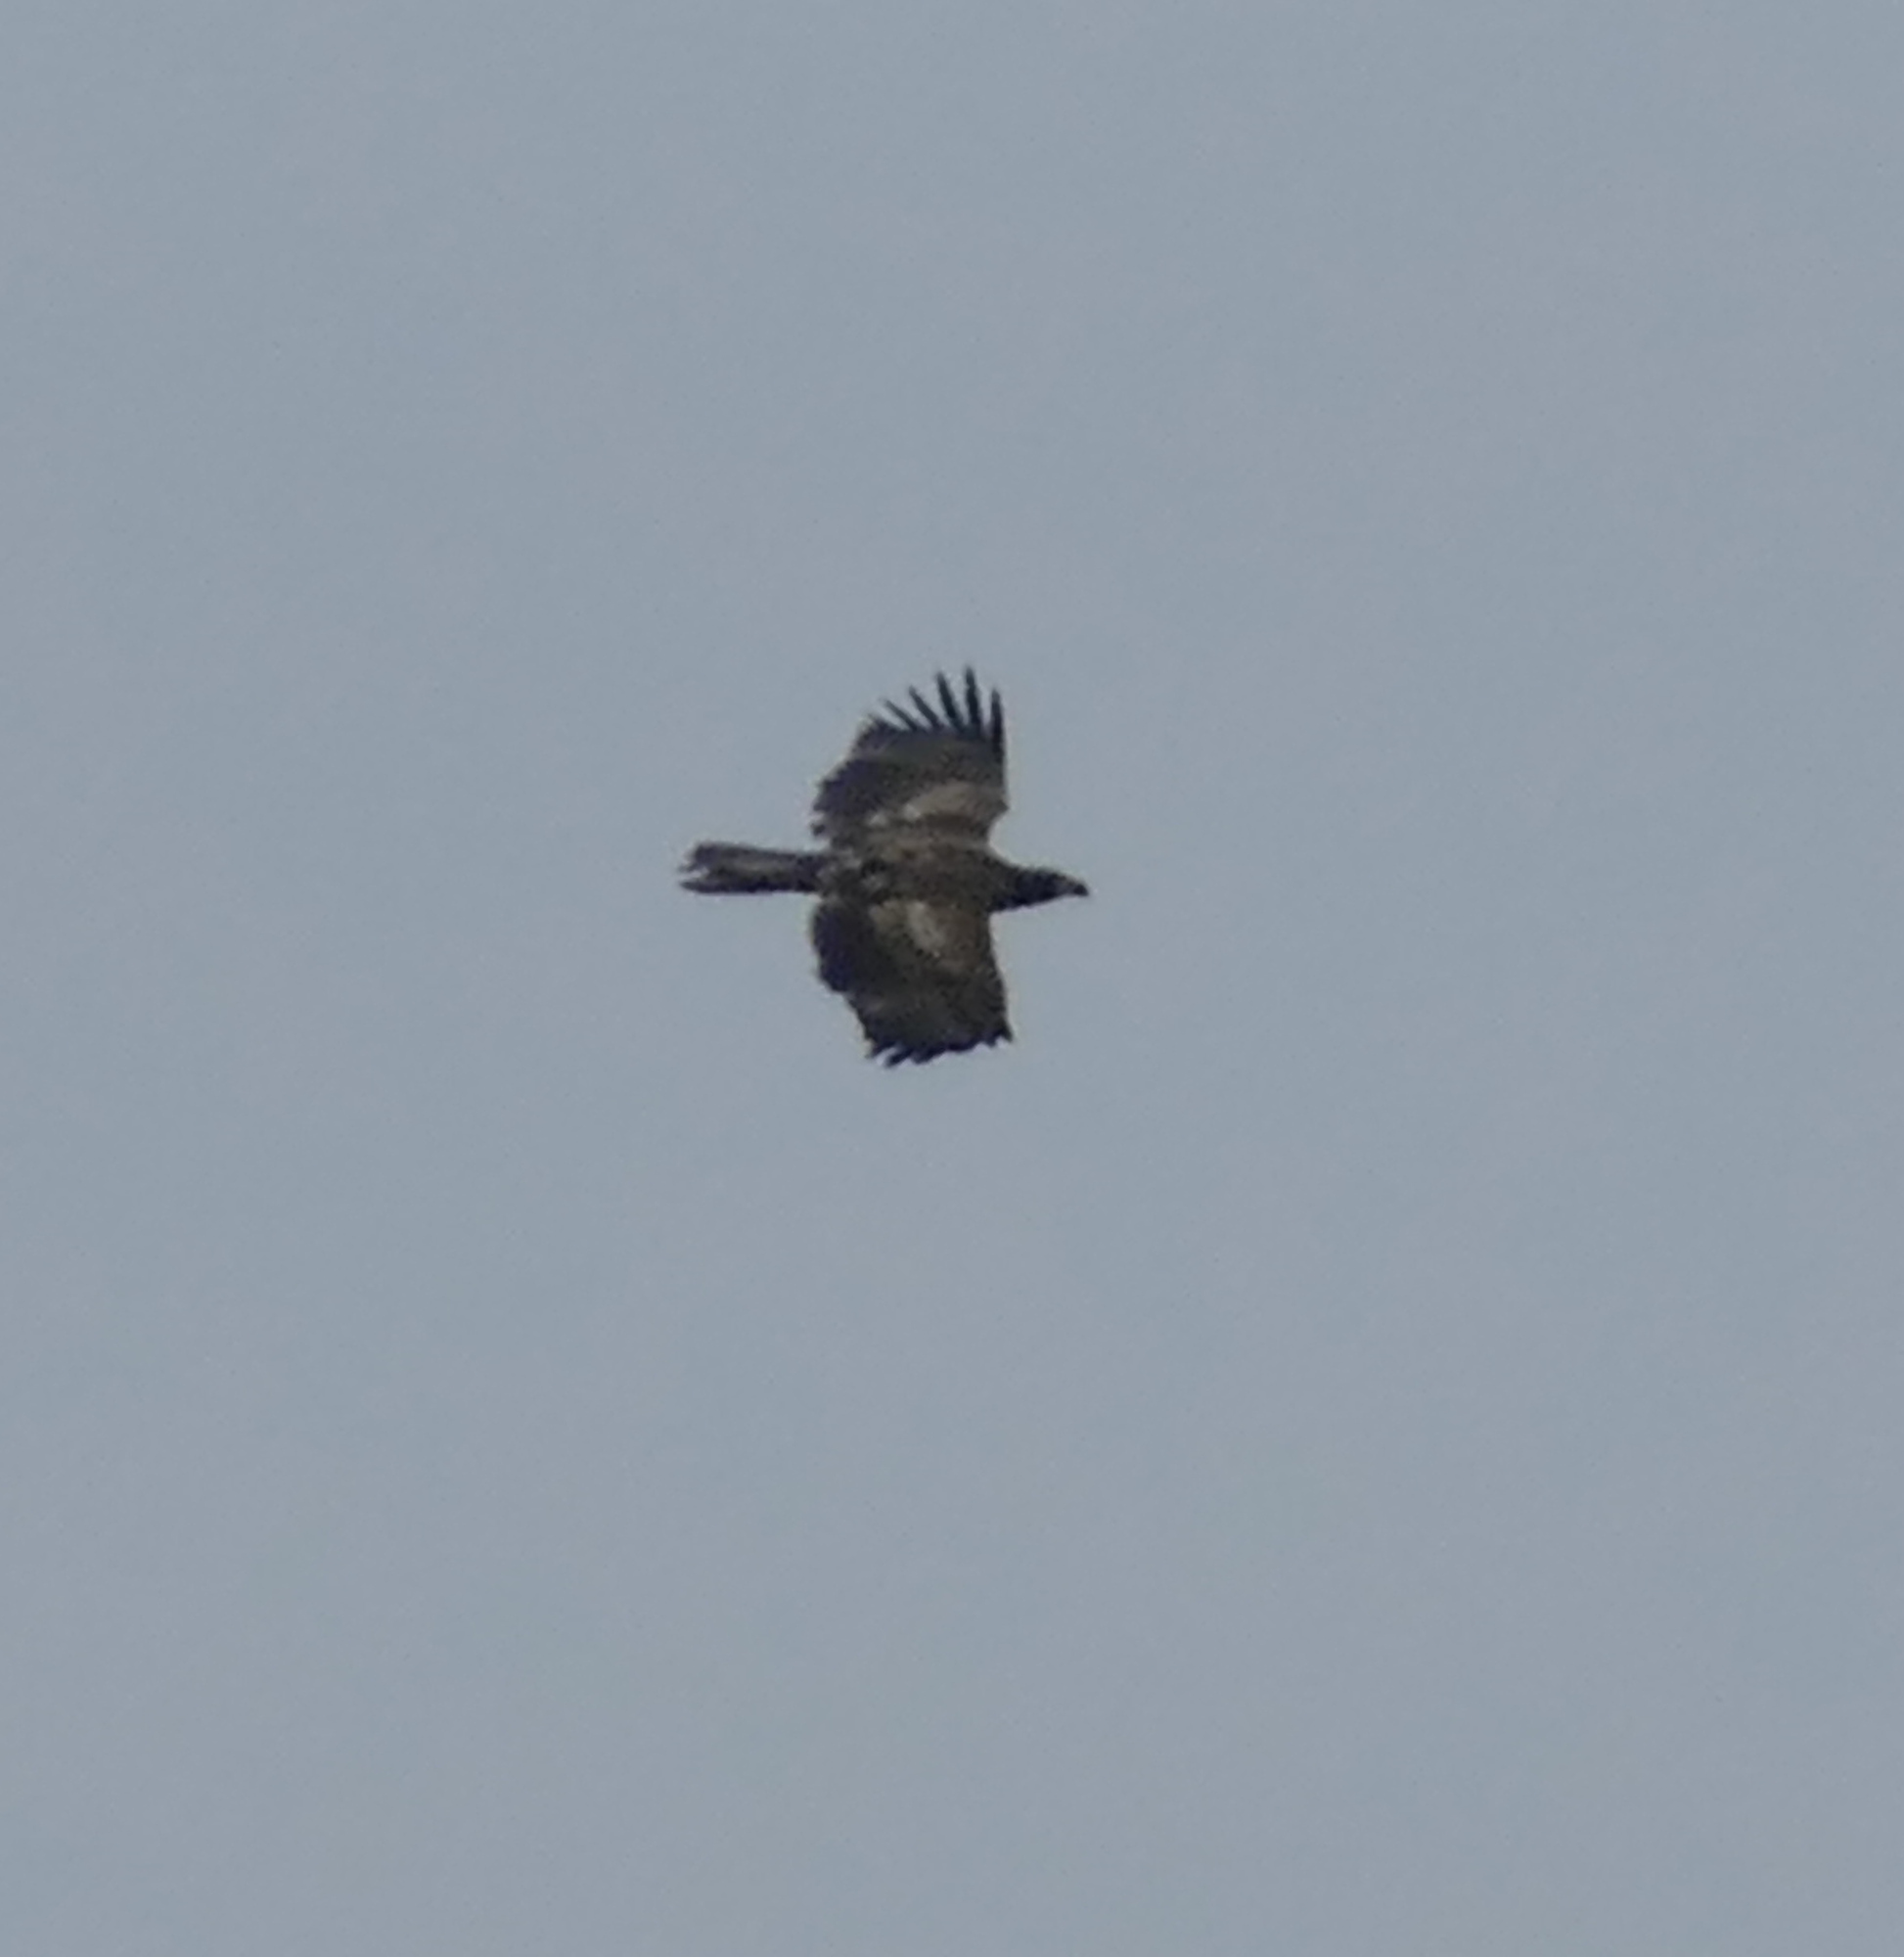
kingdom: Animalia
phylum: Chordata
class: Aves
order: Accipitriformes
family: Accipitridae
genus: Haliaeetus
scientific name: Haliaeetus leucocephalus
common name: Bald eagle
